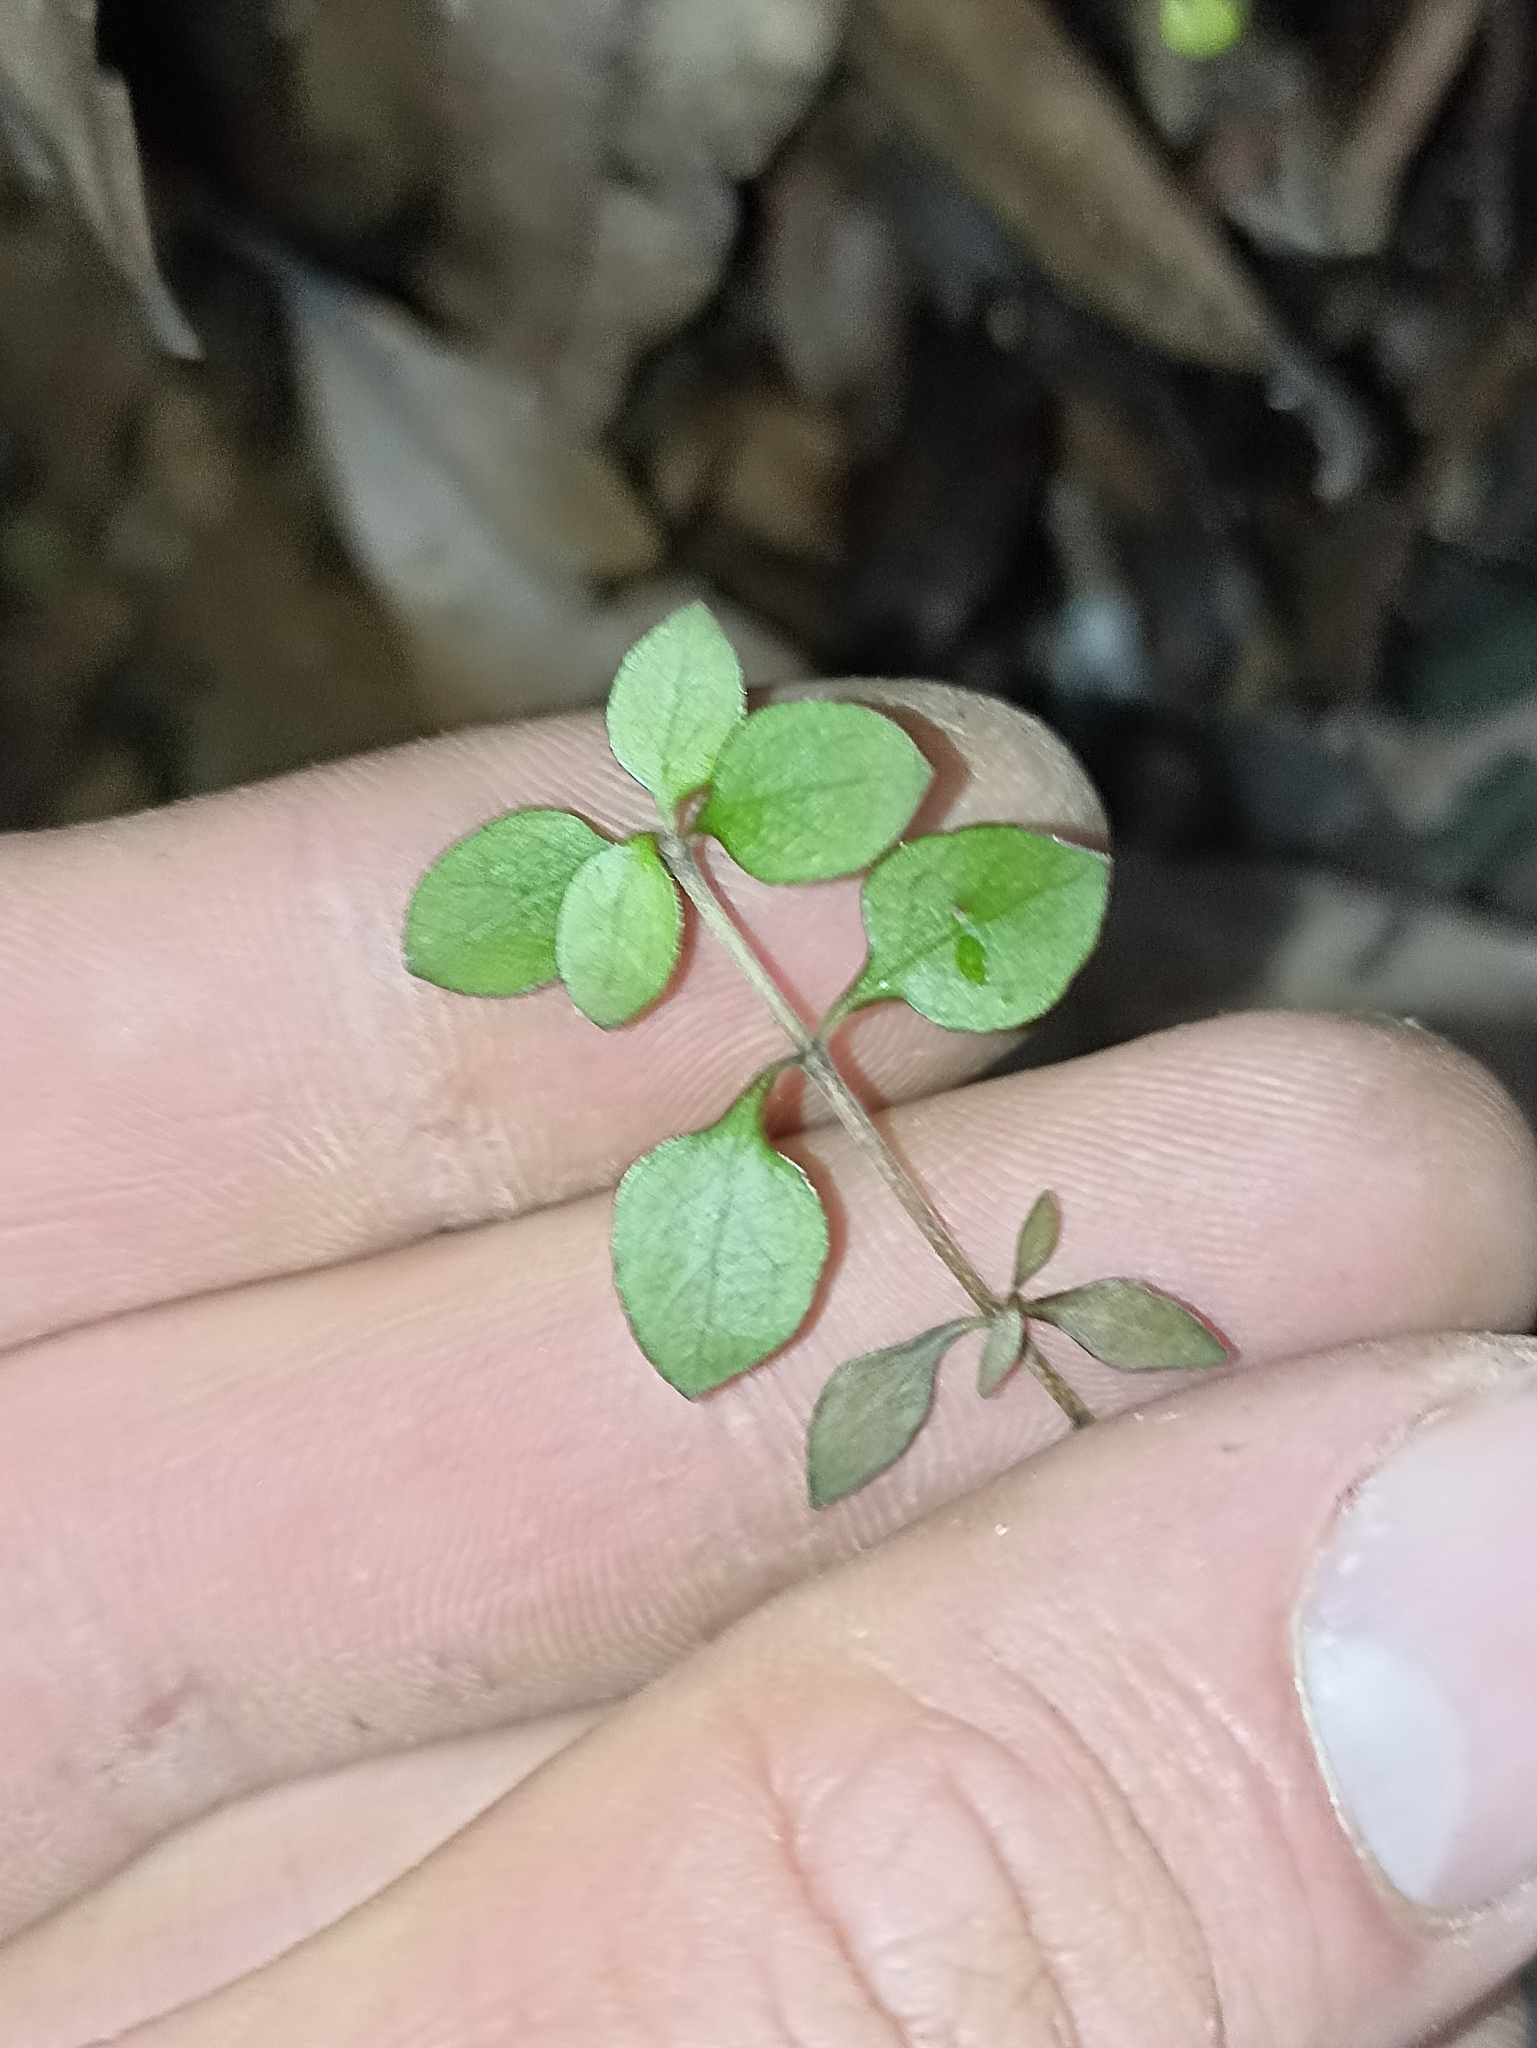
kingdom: Plantae
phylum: Tracheophyta
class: Magnoliopsida
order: Gentianales
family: Rubiaceae
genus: Coprosma
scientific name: Coprosma rhamnoides
